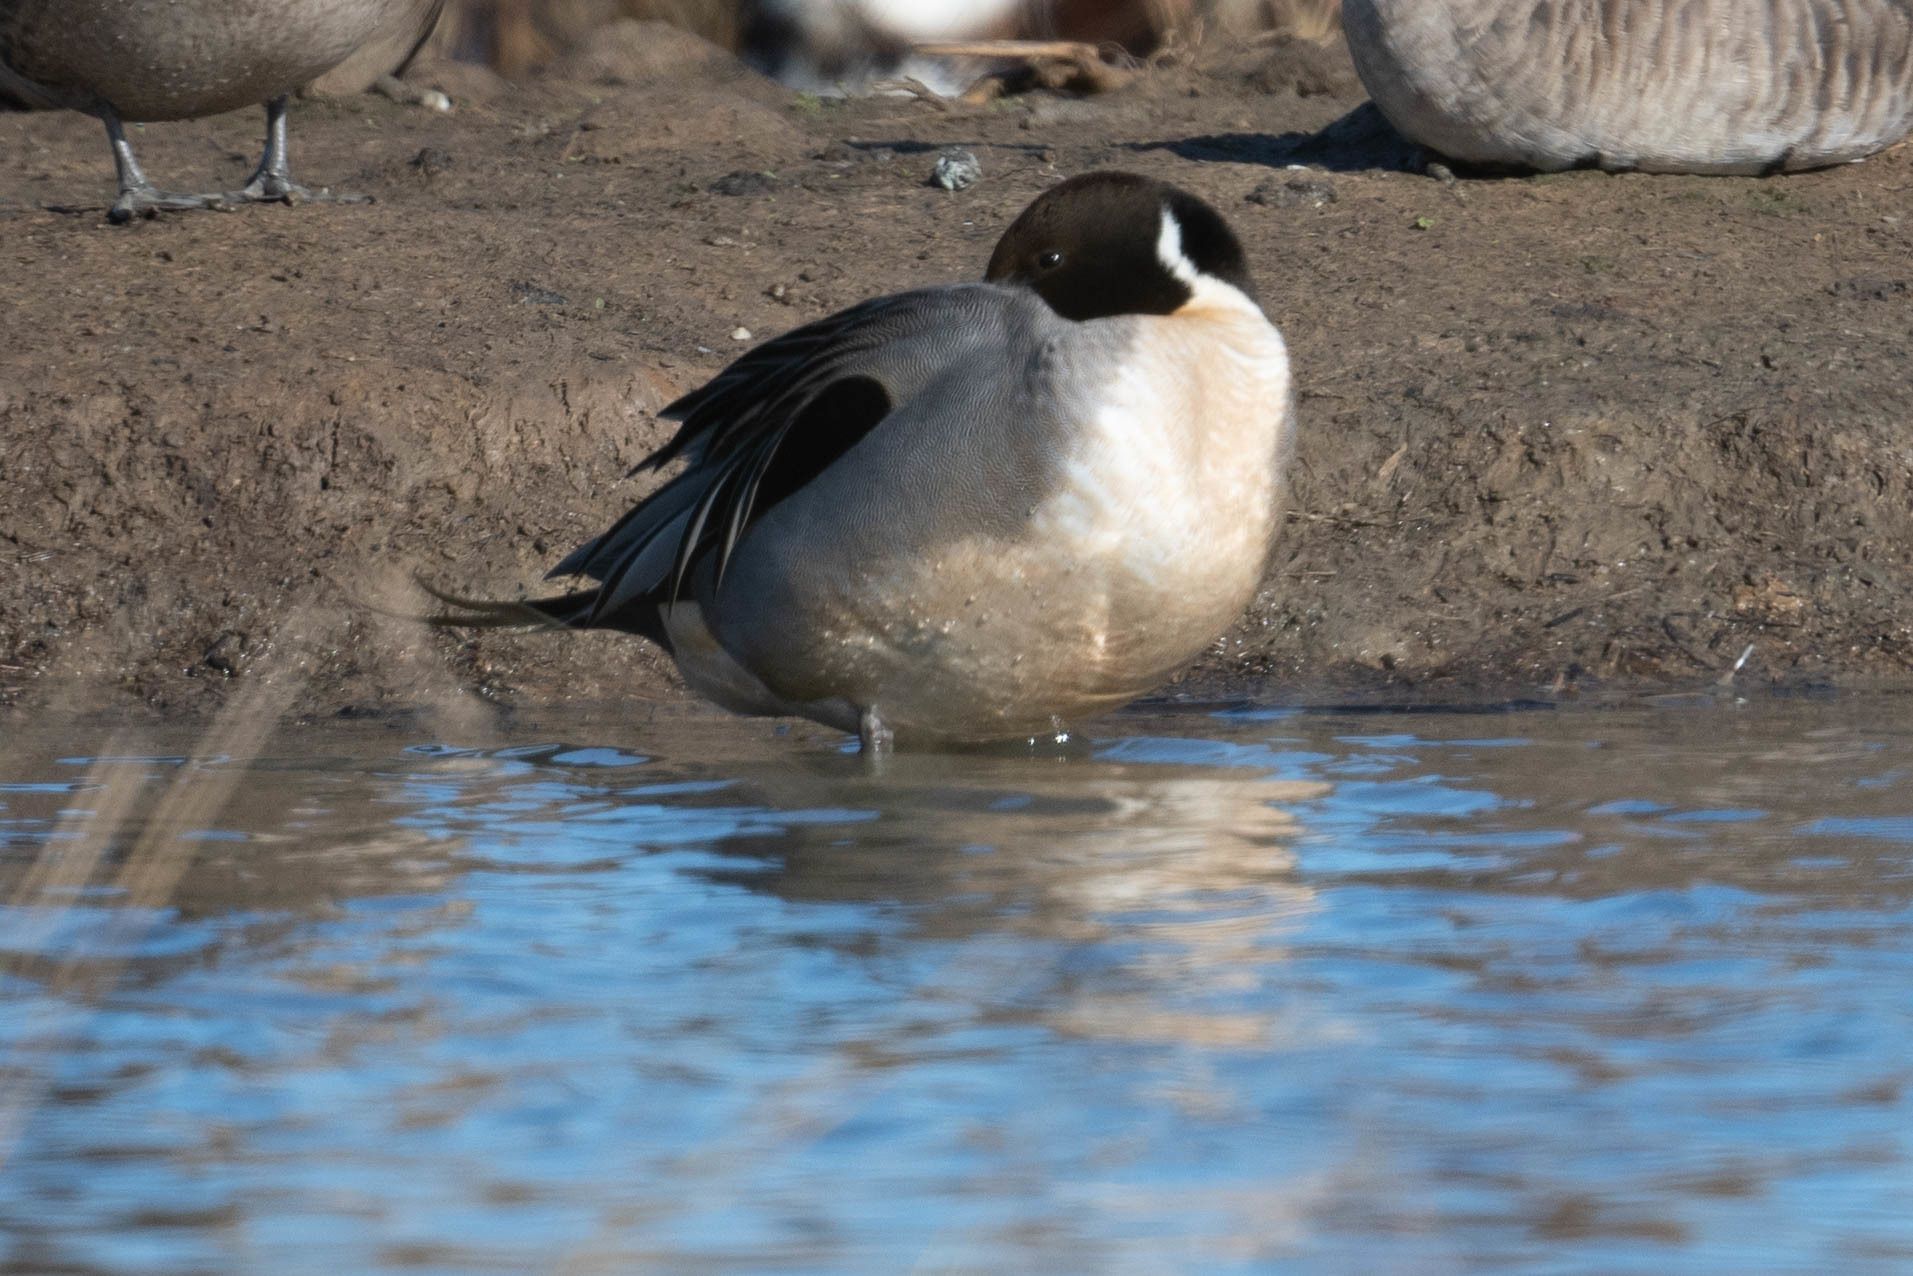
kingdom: Animalia
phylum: Chordata
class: Aves
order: Anseriformes
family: Anatidae
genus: Anas
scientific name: Anas acuta
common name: Northern pintail
